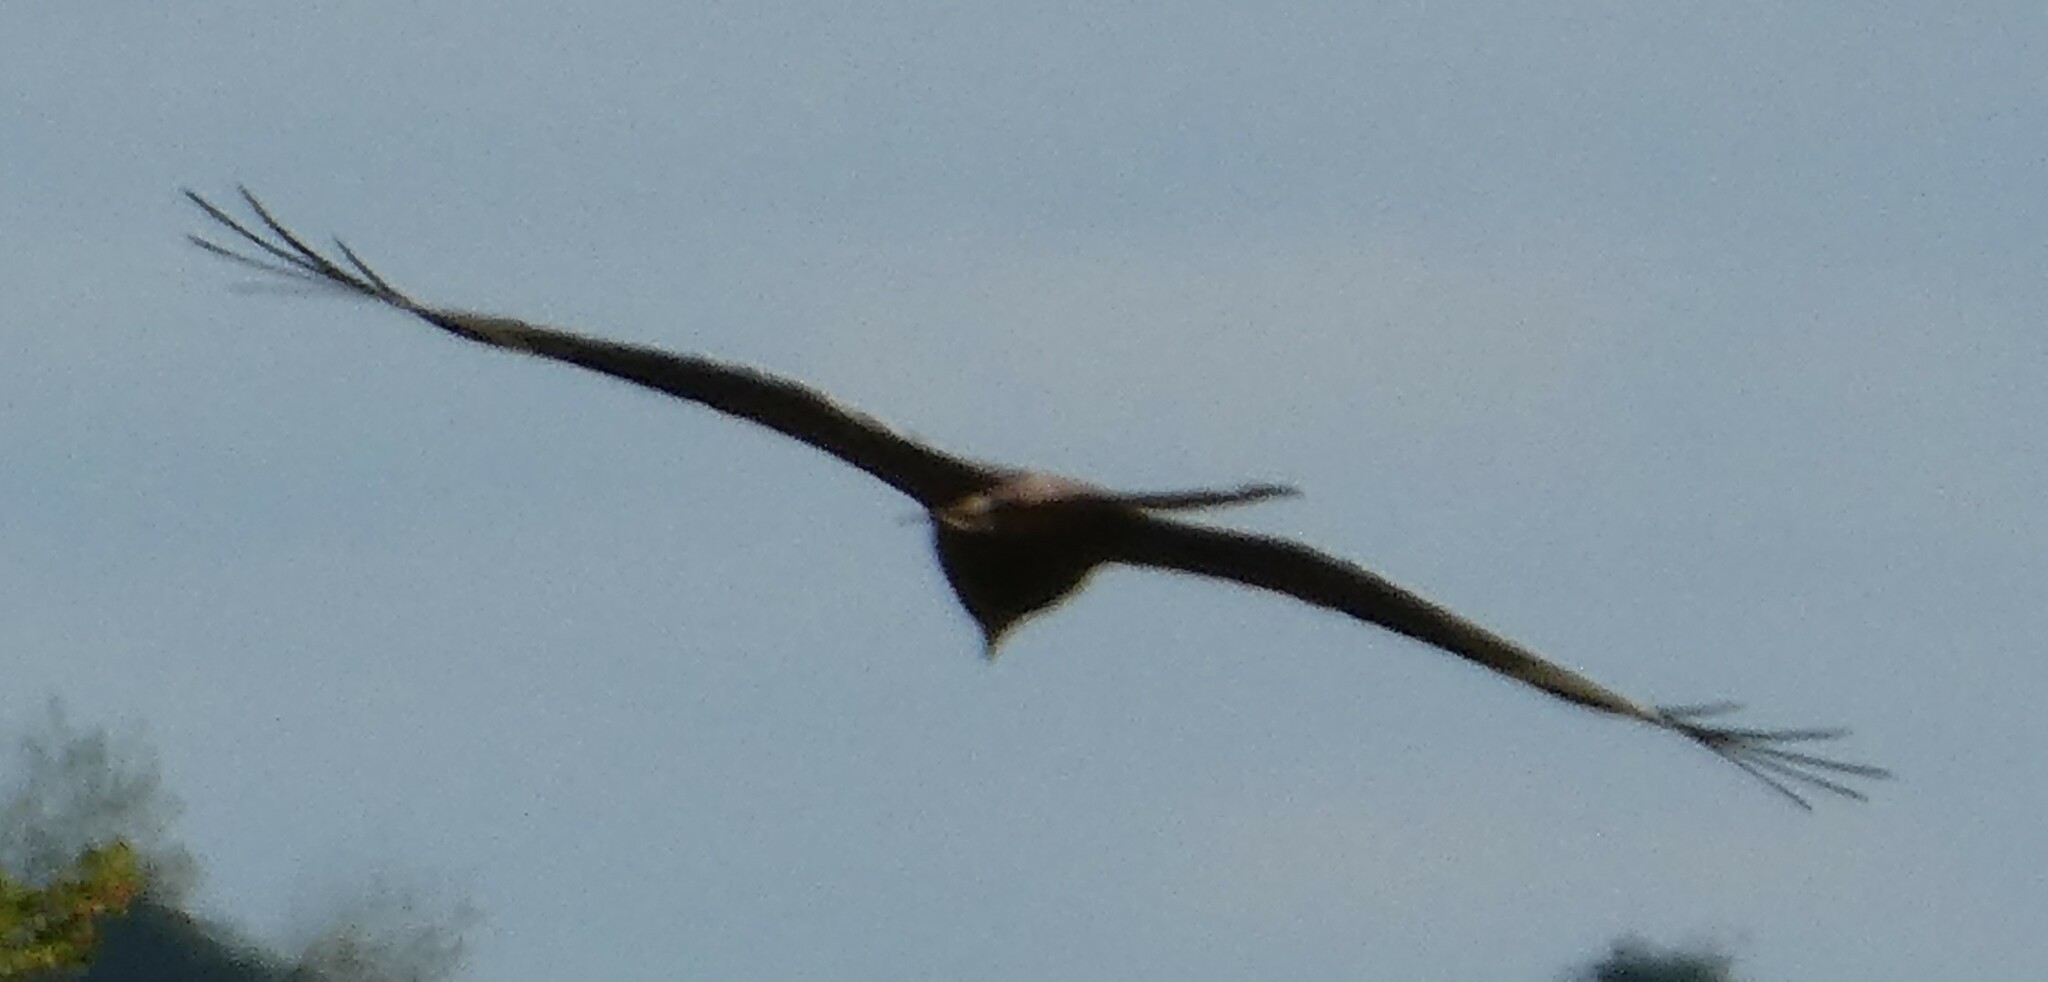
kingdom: Animalia
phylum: Chordata
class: Aves
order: Accipitriformes
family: Accipitridae
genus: Milvus
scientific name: Milvus milvus
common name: Red kite
